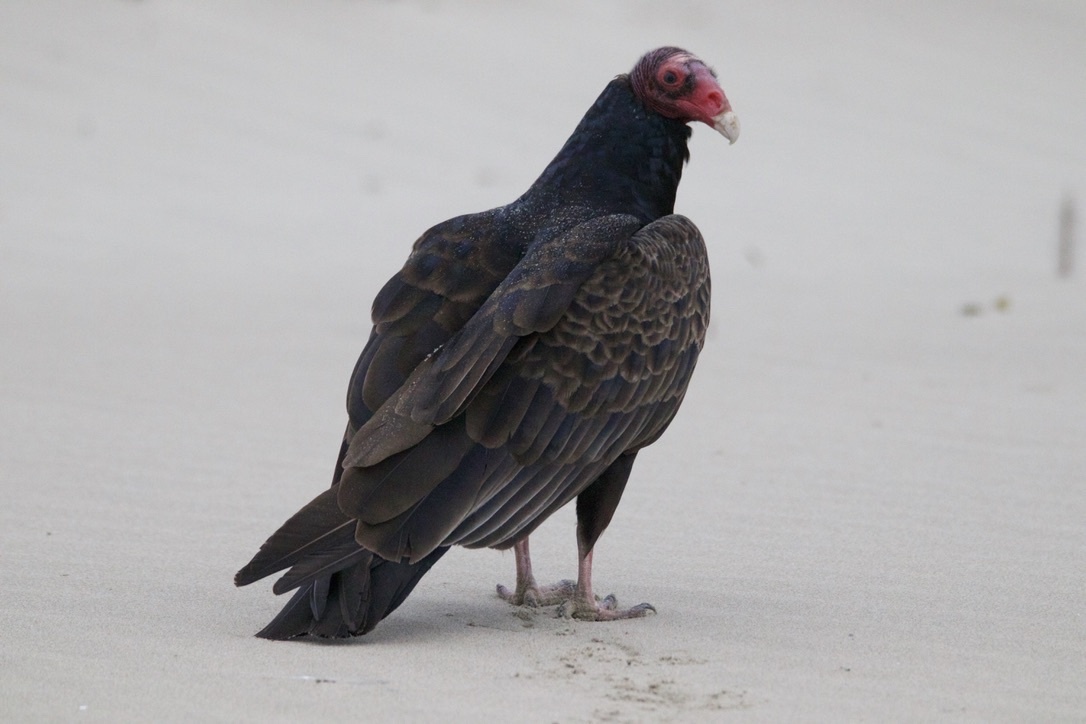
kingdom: Animalia
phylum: Chordata
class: Aves
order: Accipitriformes
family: Cathartidae
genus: Cathartes
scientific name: Cathartes aura
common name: Turkey vulture
